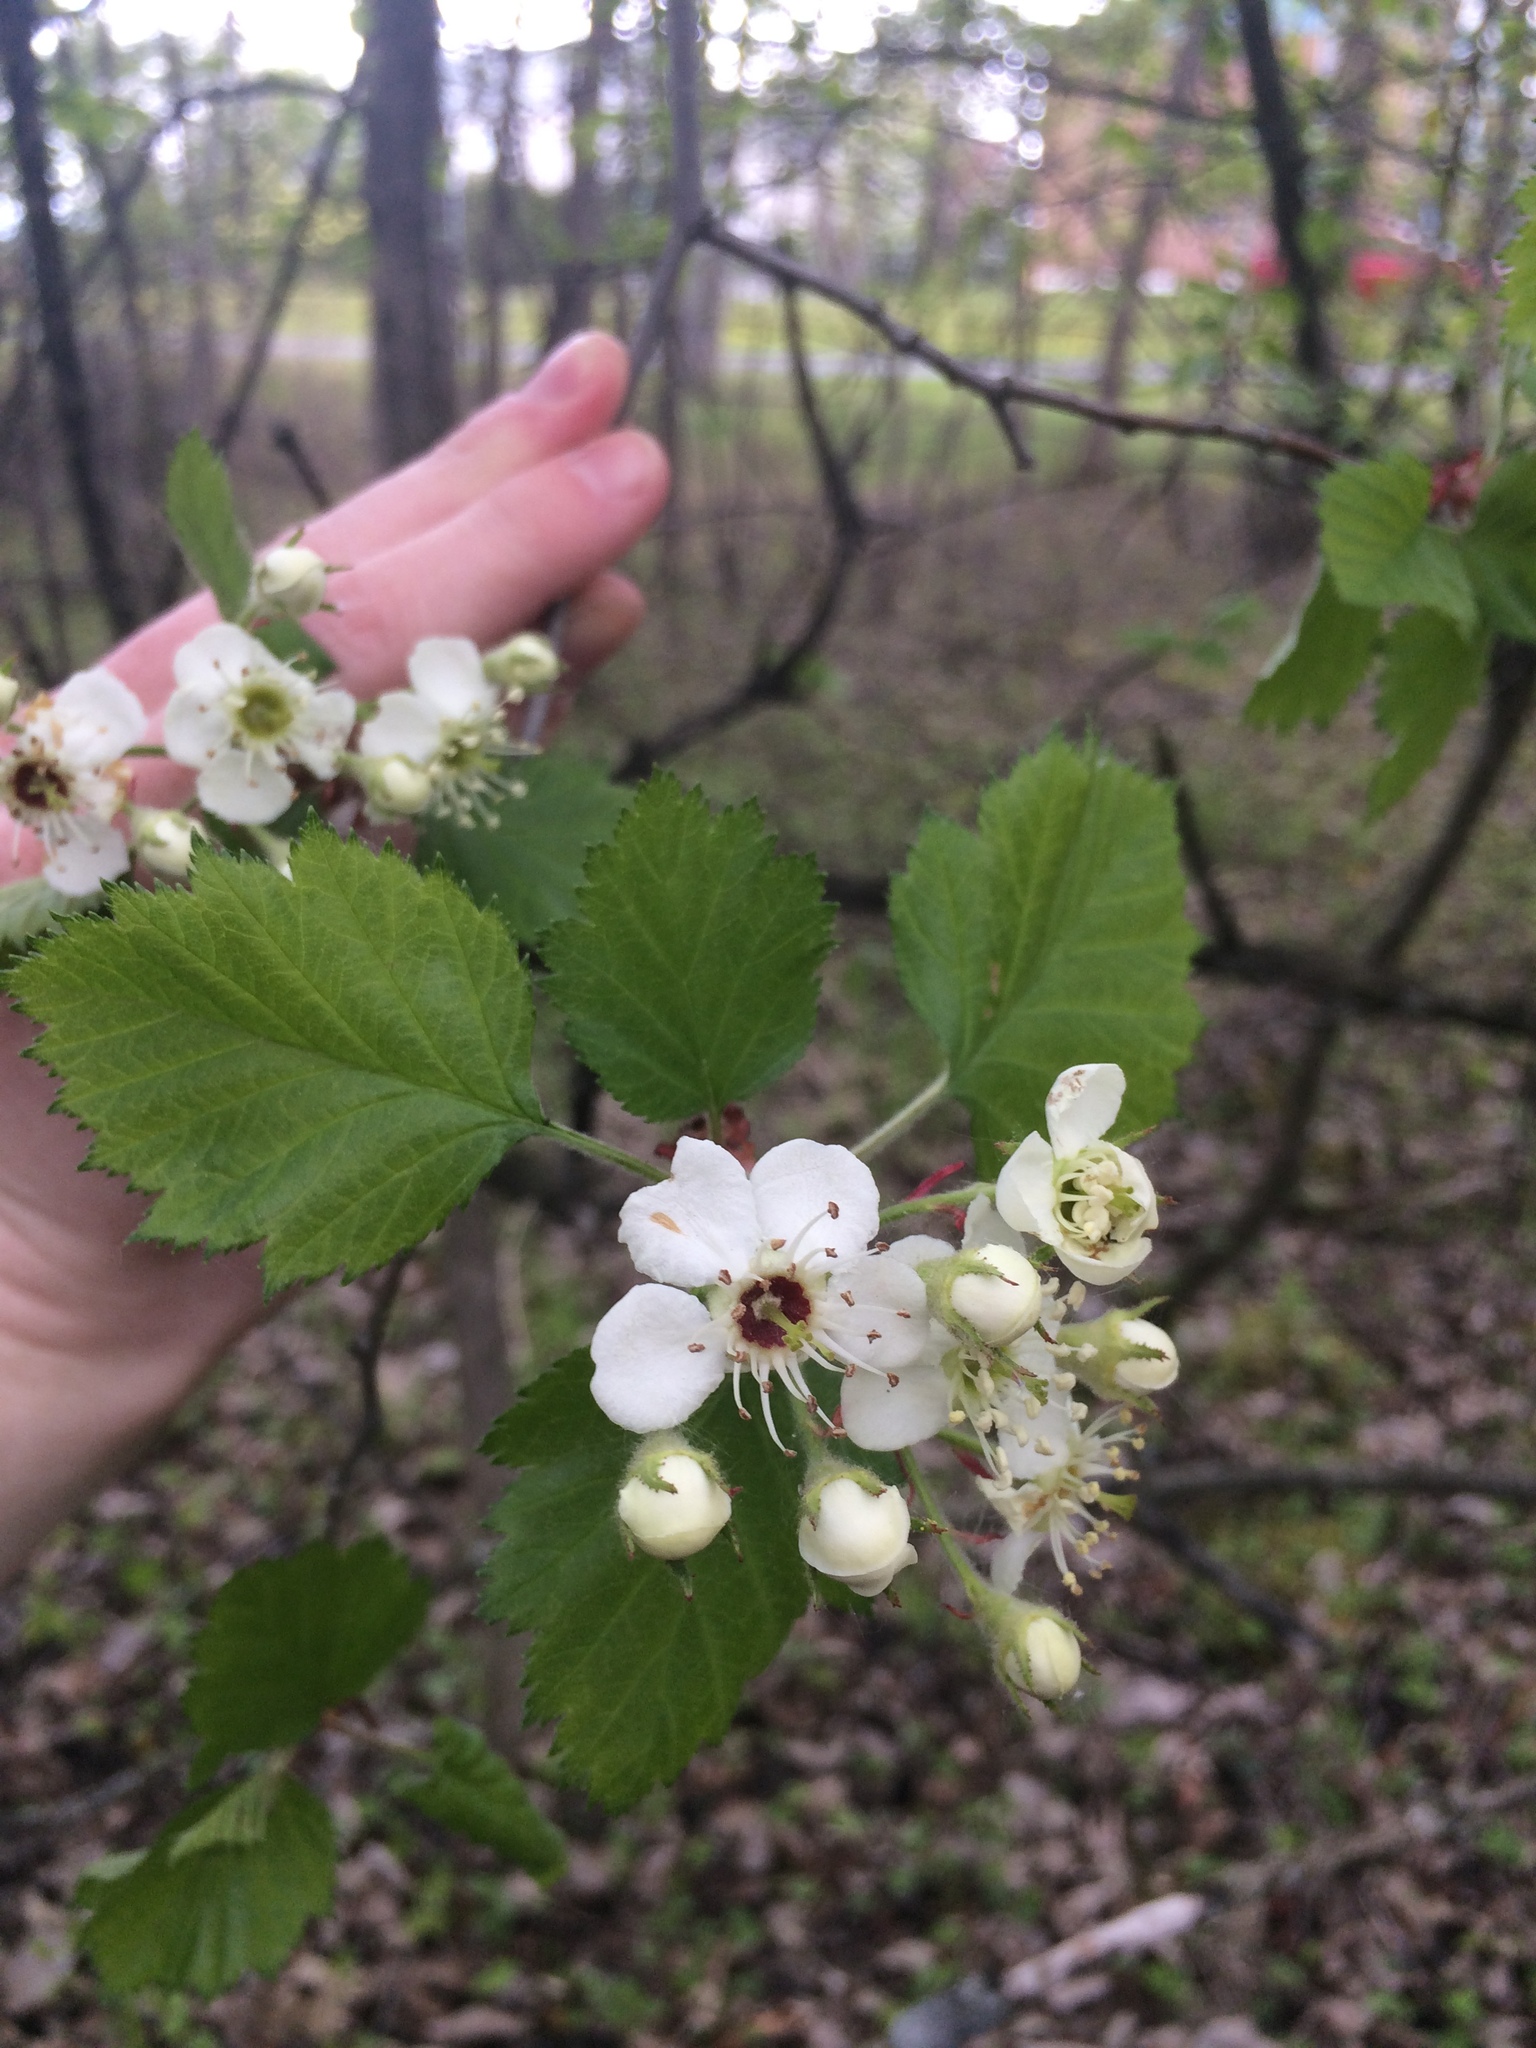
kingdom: Plantae
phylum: Tracheophyta
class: Magnoliopsida
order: Rosales
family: Rosaceae
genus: Crataegus
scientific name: Crataegus submollis
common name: Hairy cockspurthorn
